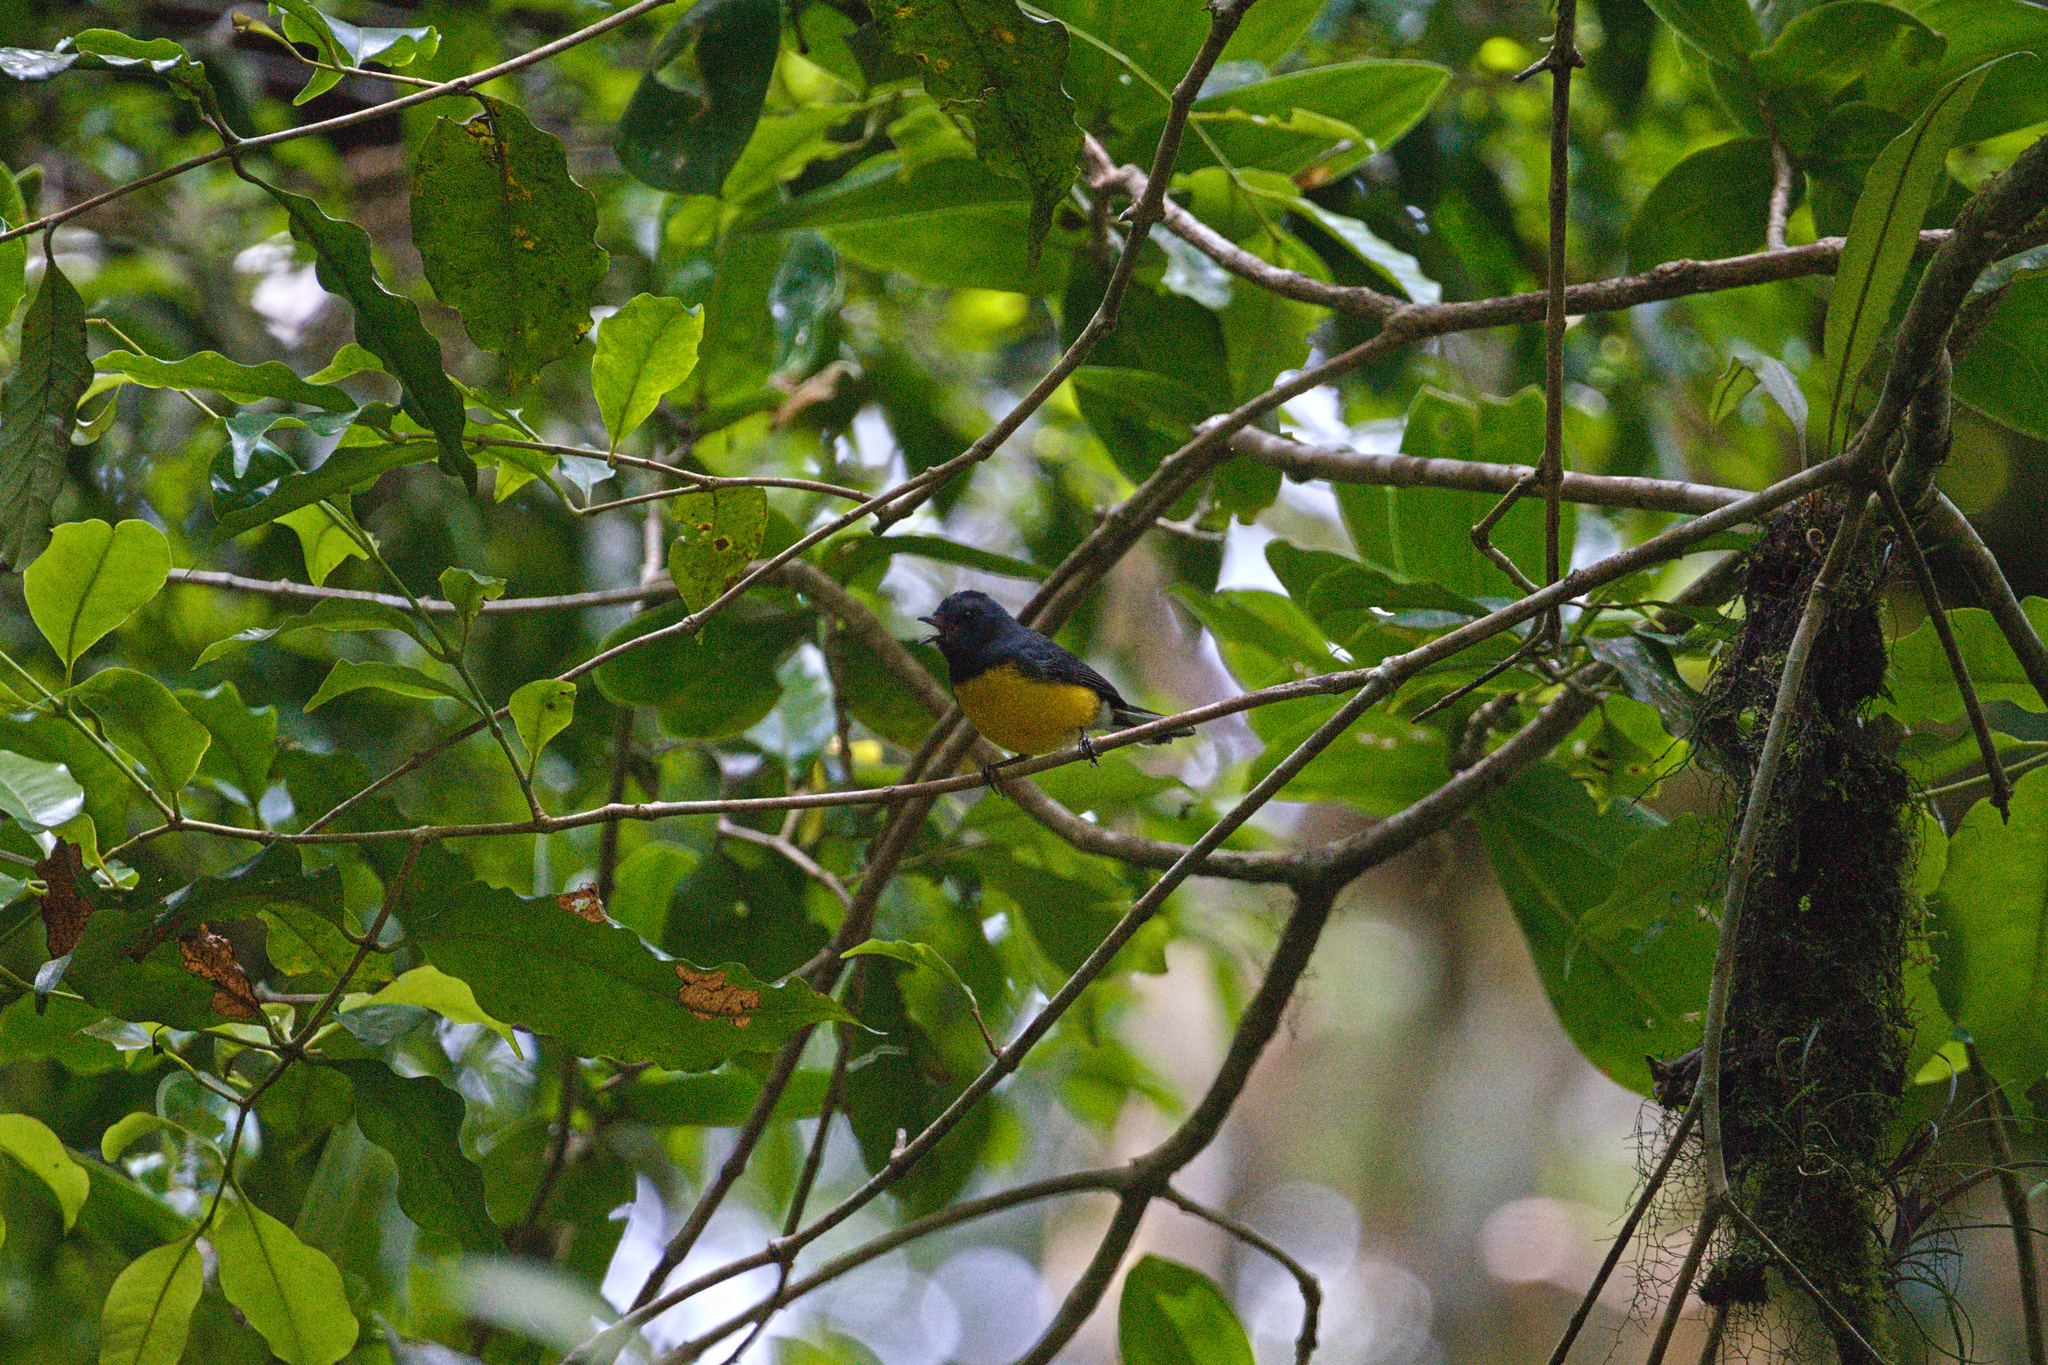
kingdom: Animalia
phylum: Chordata
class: Aves
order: Passeriformes
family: Parulidae
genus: Myioborus
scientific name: Myioborus miniatus
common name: Slate-throated redstart
